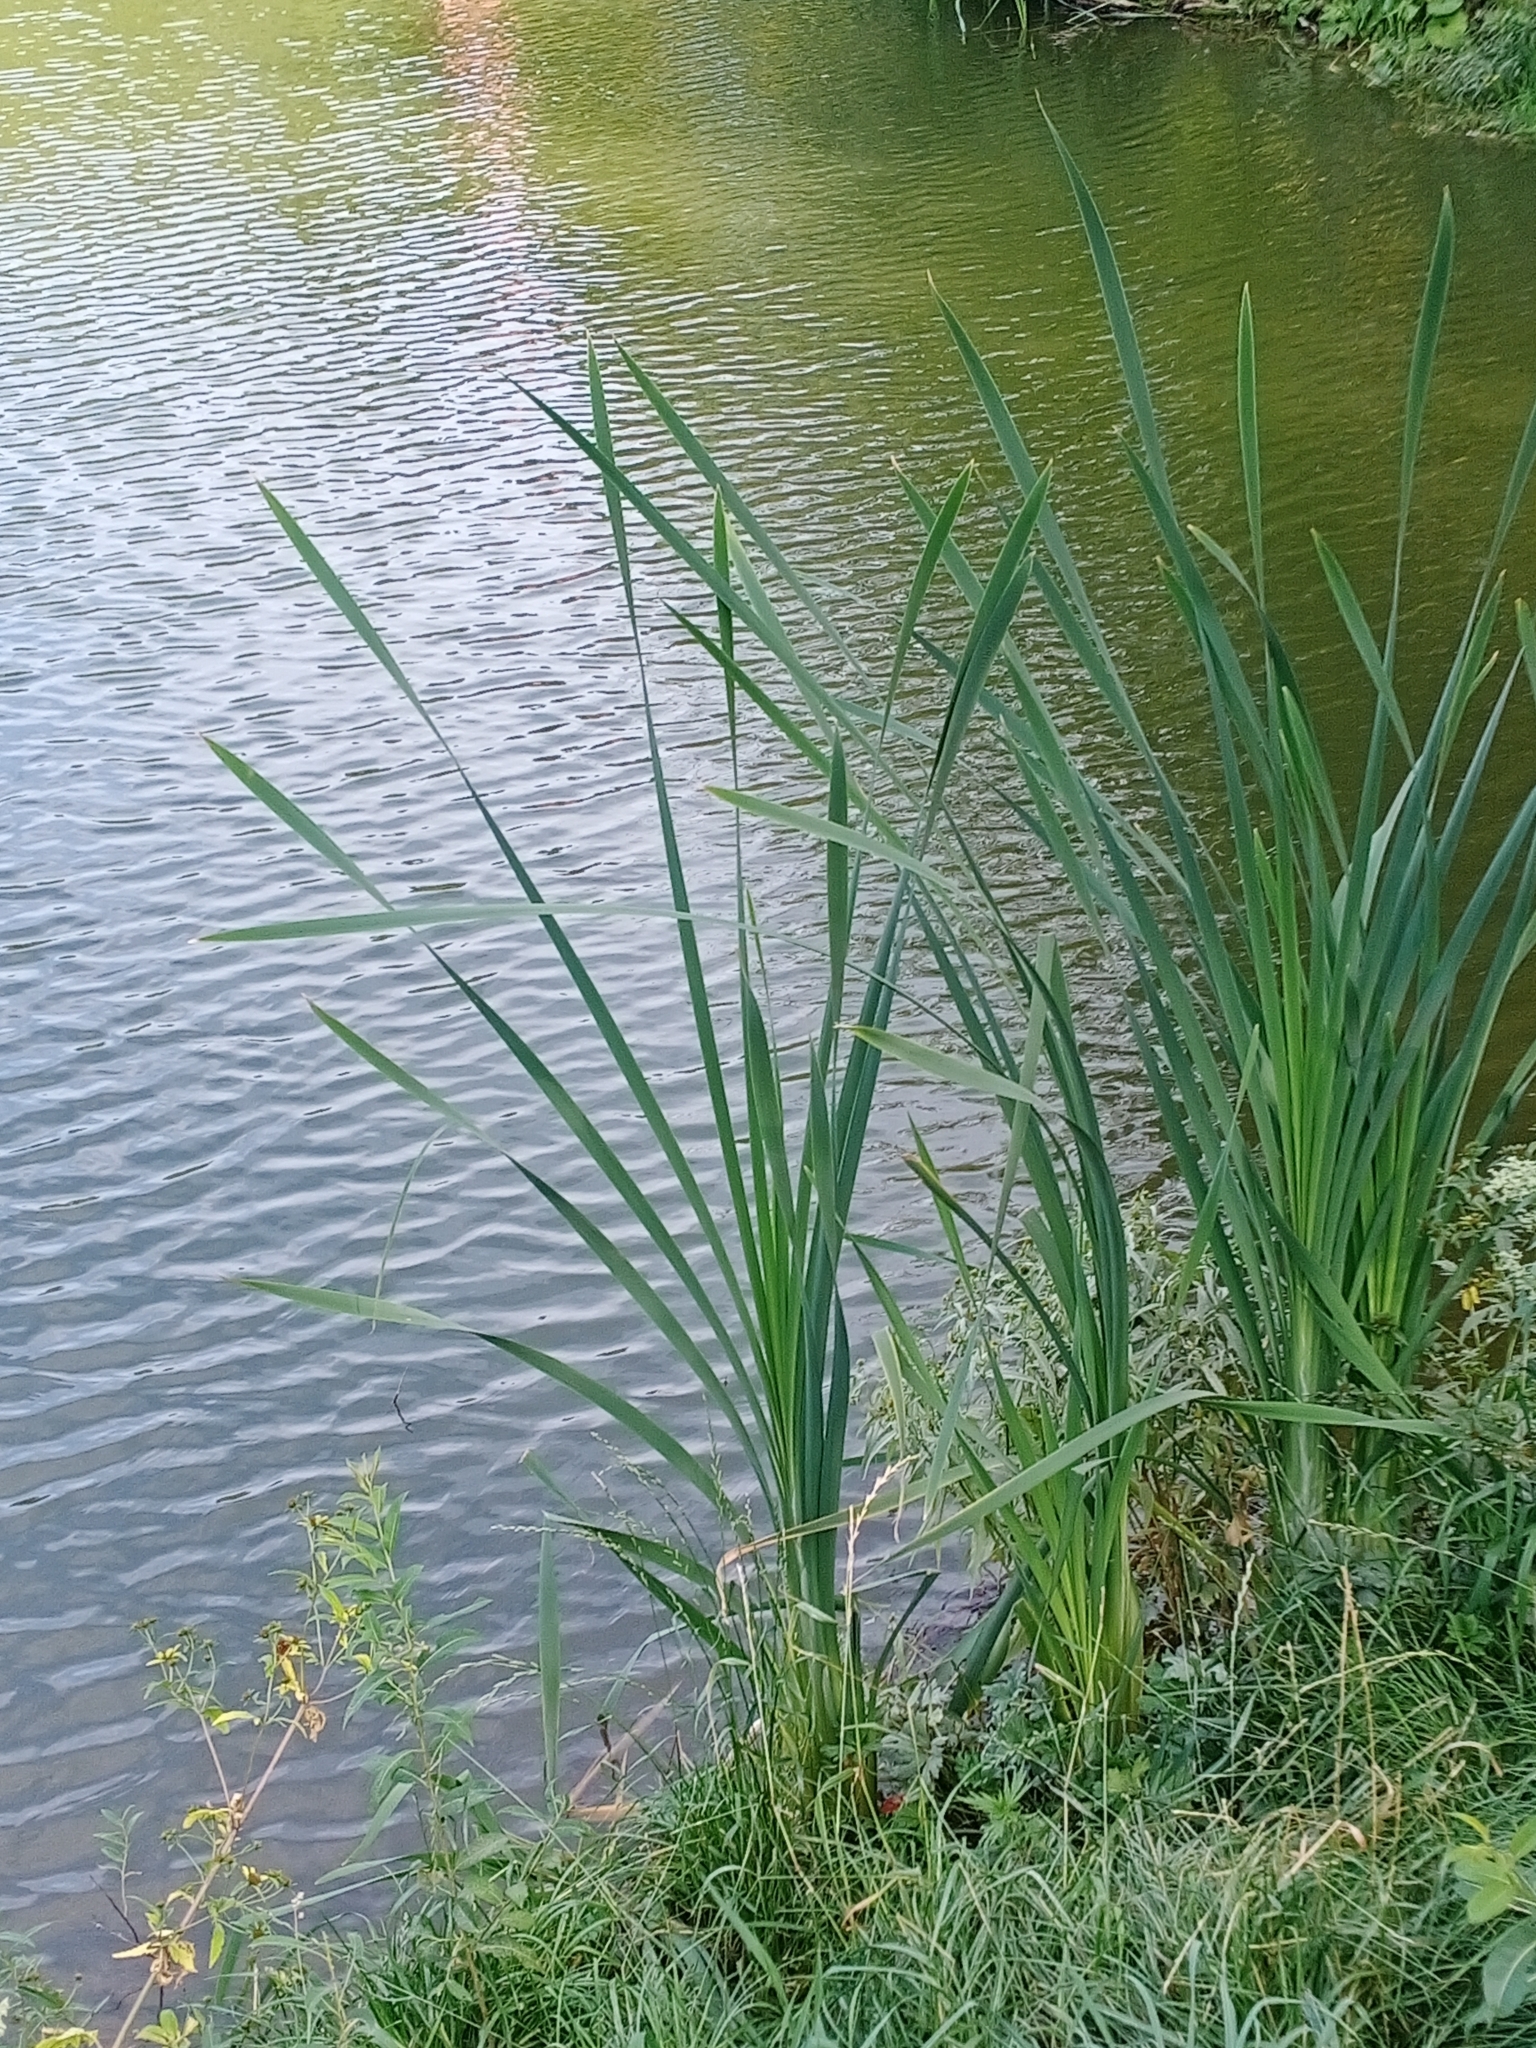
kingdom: Plantae
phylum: Tracheophyta
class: Liliopsida
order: Poales
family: Typhaceae
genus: Typha
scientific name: Typha latifolia
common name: Broadleaf cattail
